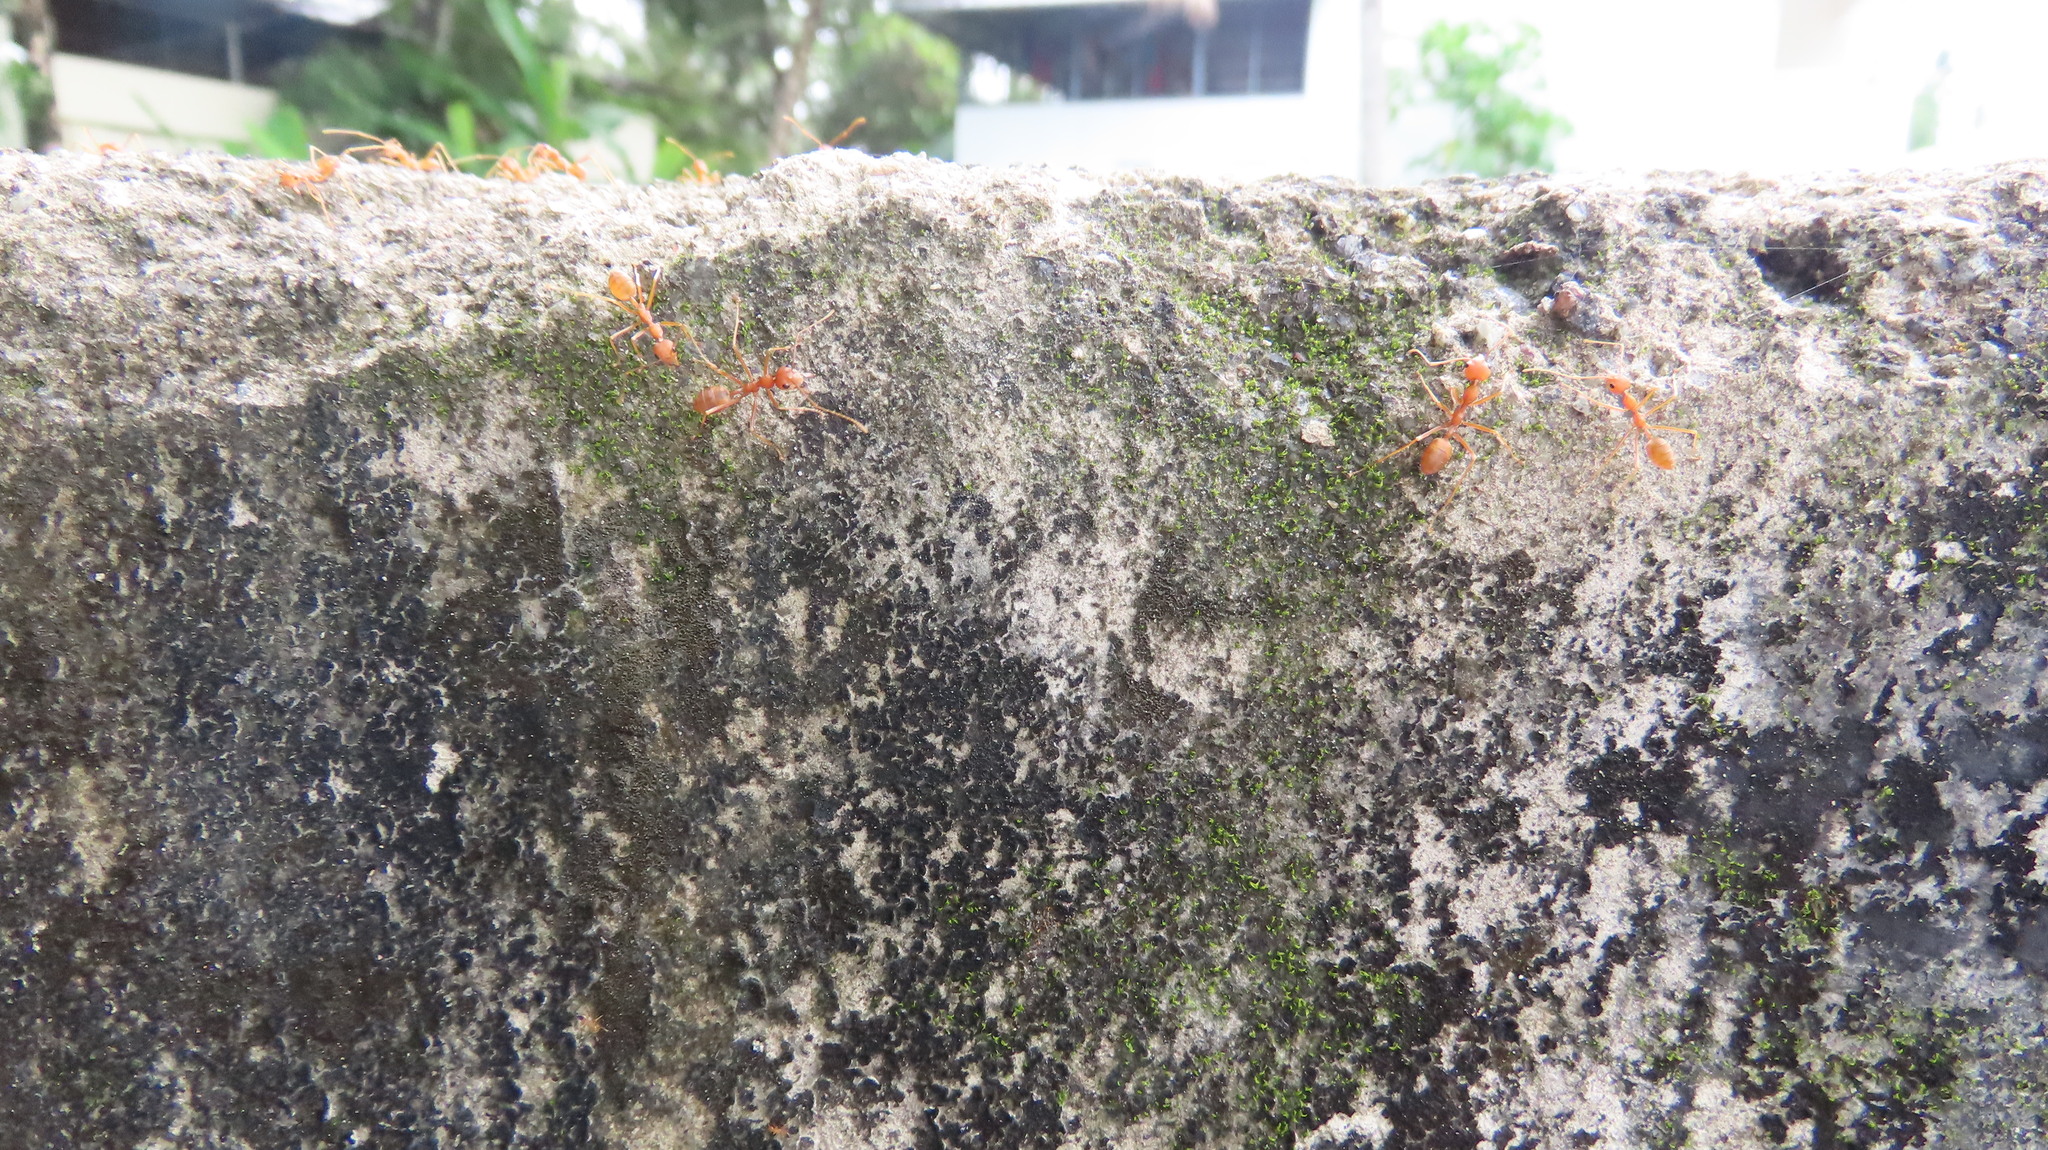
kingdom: Animalia
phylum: Arthropoda
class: Insecta
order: Hymenoptera
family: Formicidae
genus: Oecophylla
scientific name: Oecophylla smaragdina
